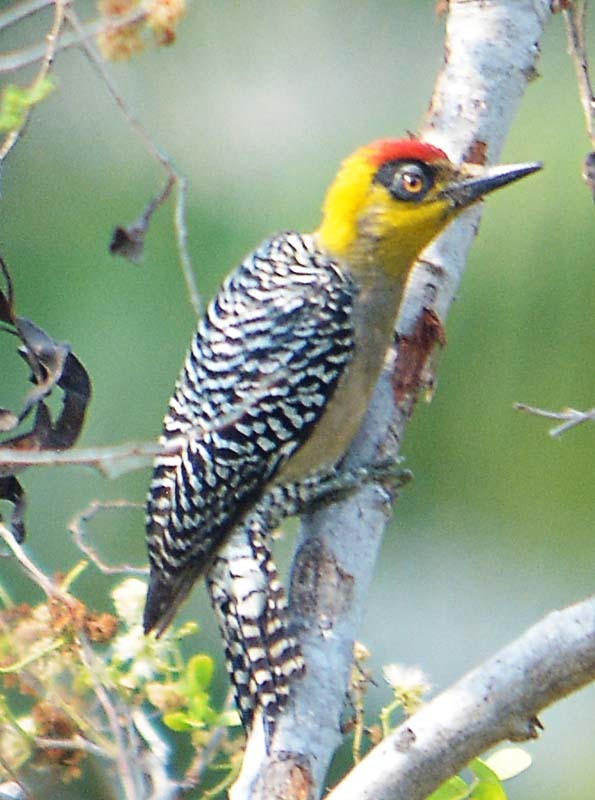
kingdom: Animalia
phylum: Chordata
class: Aves
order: Piciformes
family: Picidae
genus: Melanerpes
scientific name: Melanerpes chrysogenys
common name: Golden-cheeked woodpecker
